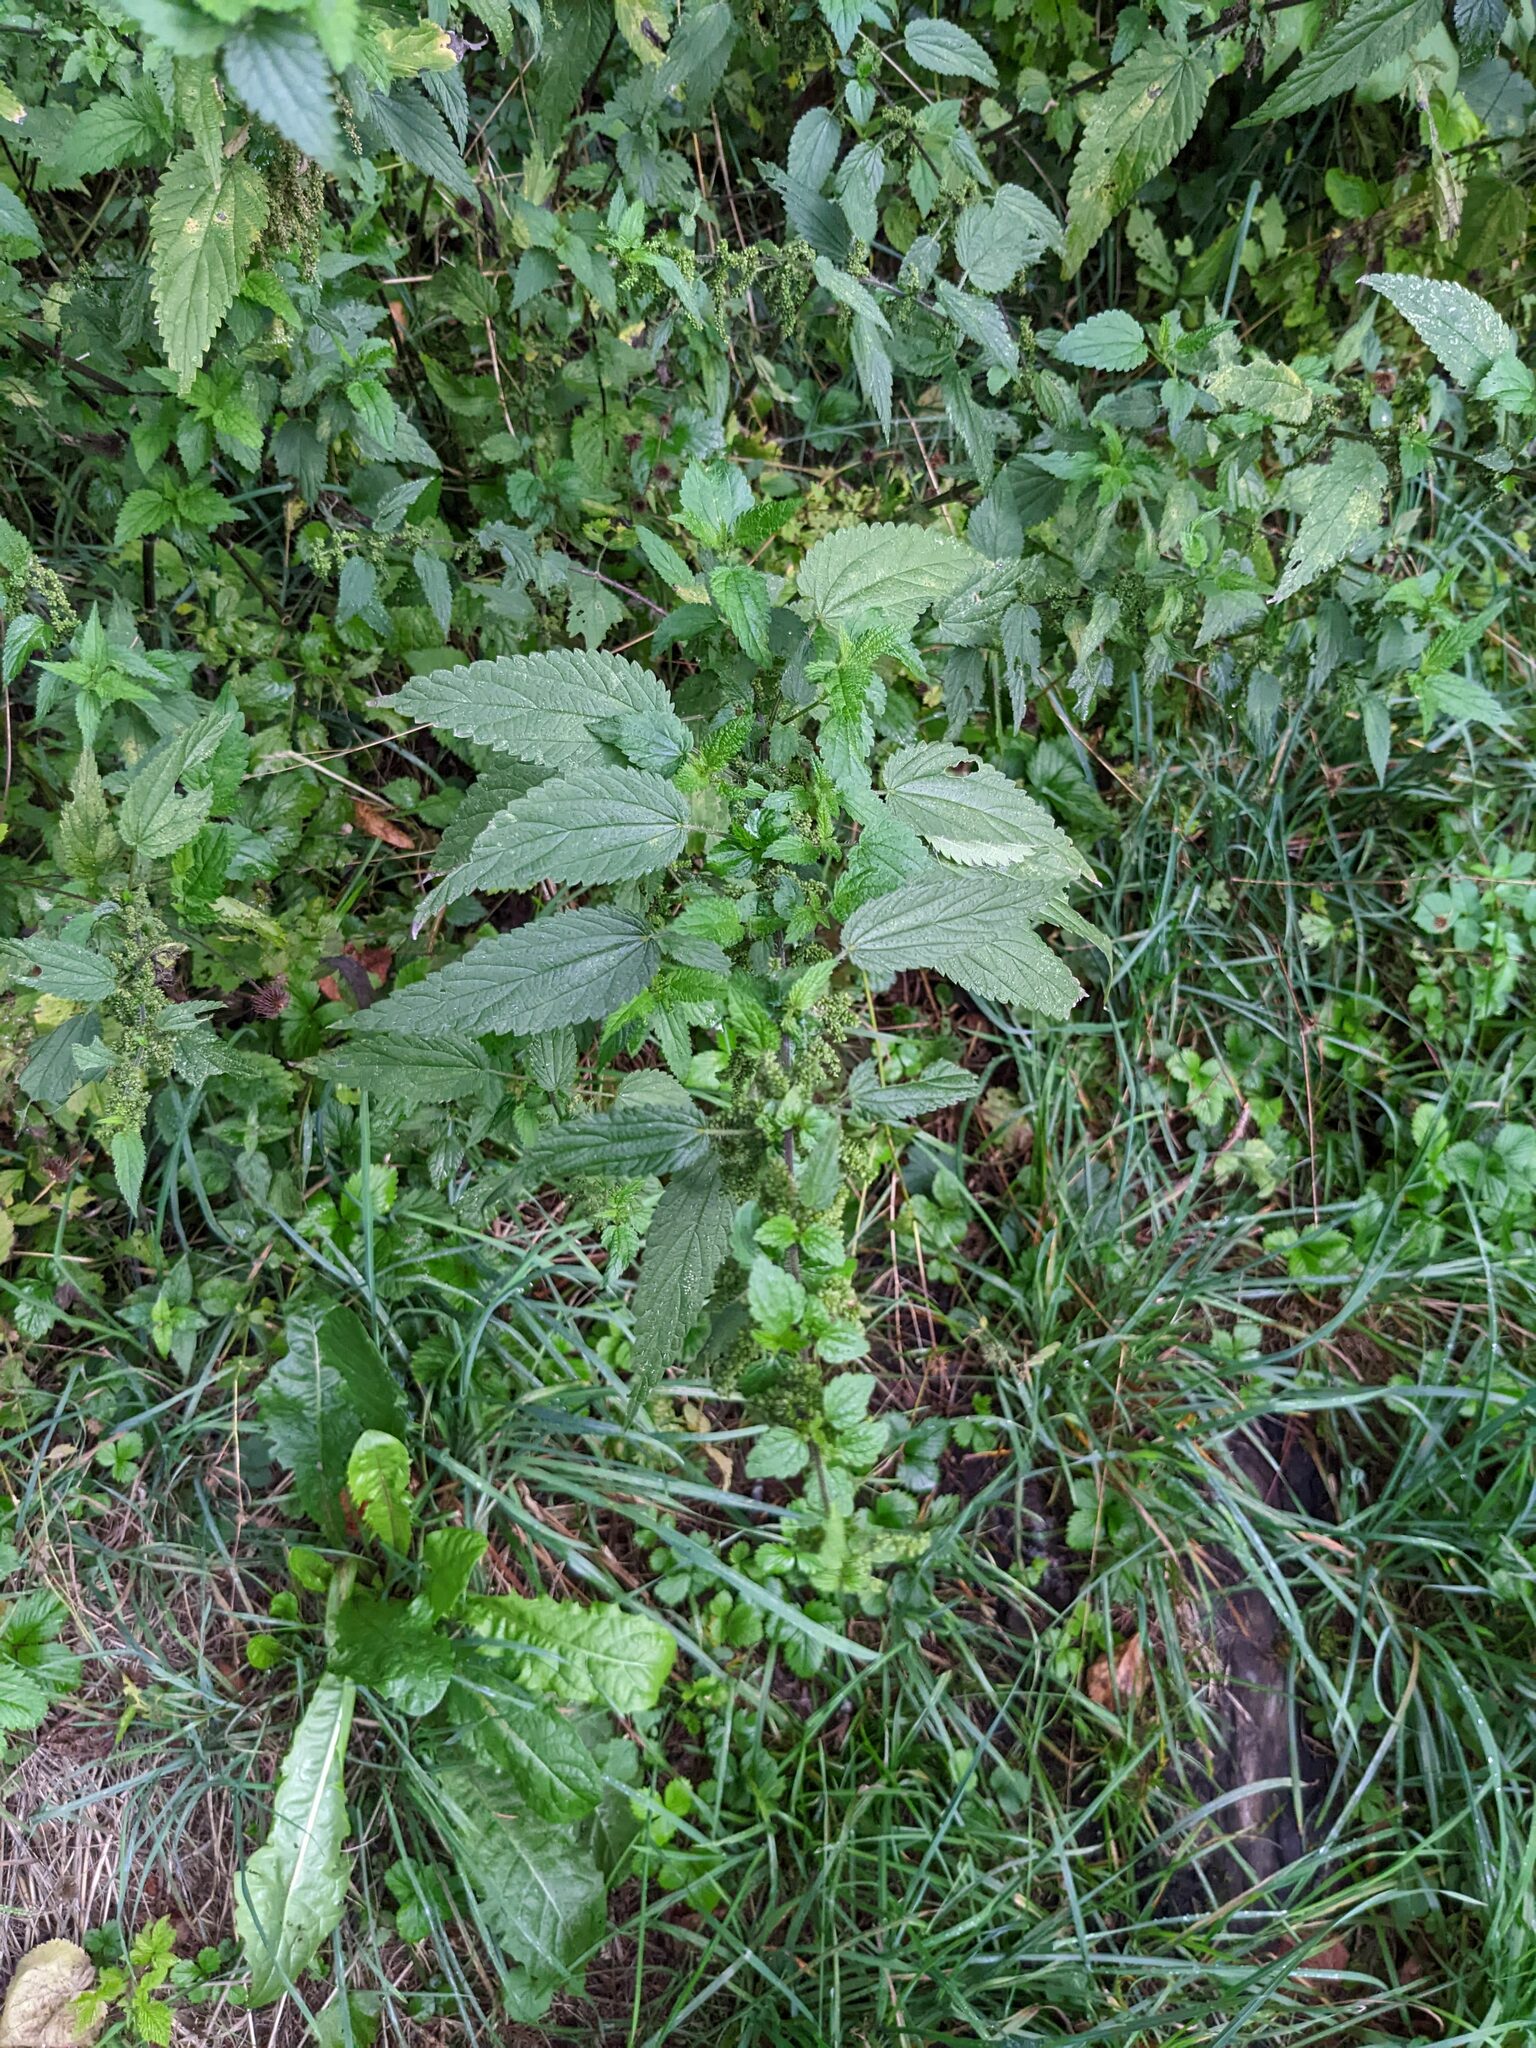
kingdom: Plantae
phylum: Tracheophyta
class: Magnoliopsida
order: Rosales
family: Urticaceae
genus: Urtica
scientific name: Urtica dioica
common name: Common nettle
